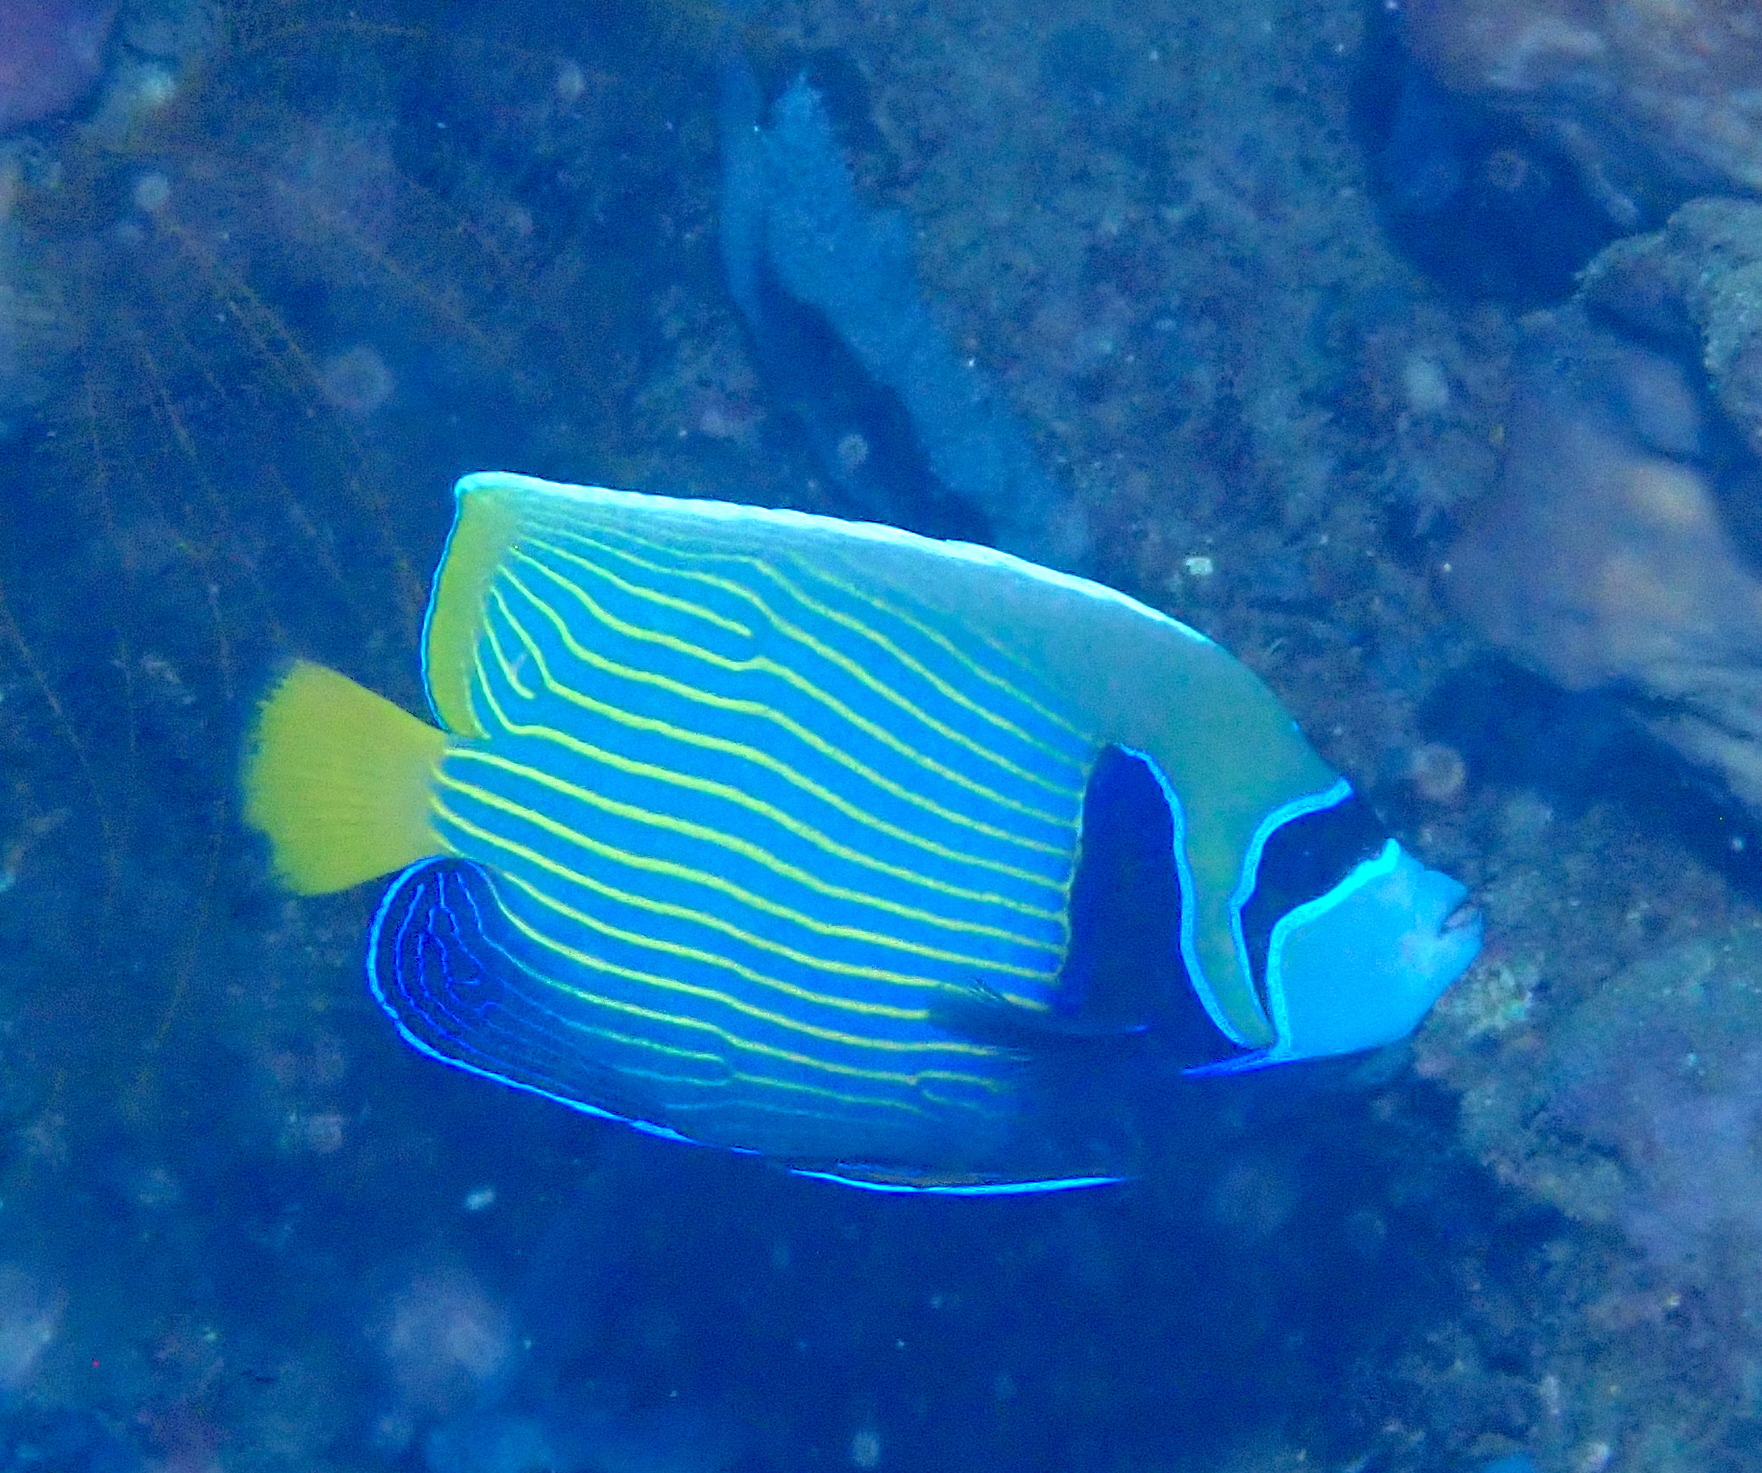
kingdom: Animalia
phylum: Chordata
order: Perciformes
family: Pomacanthidae
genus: Pomacanthus
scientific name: Pomacanthus imperator
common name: Emperor angelfish
